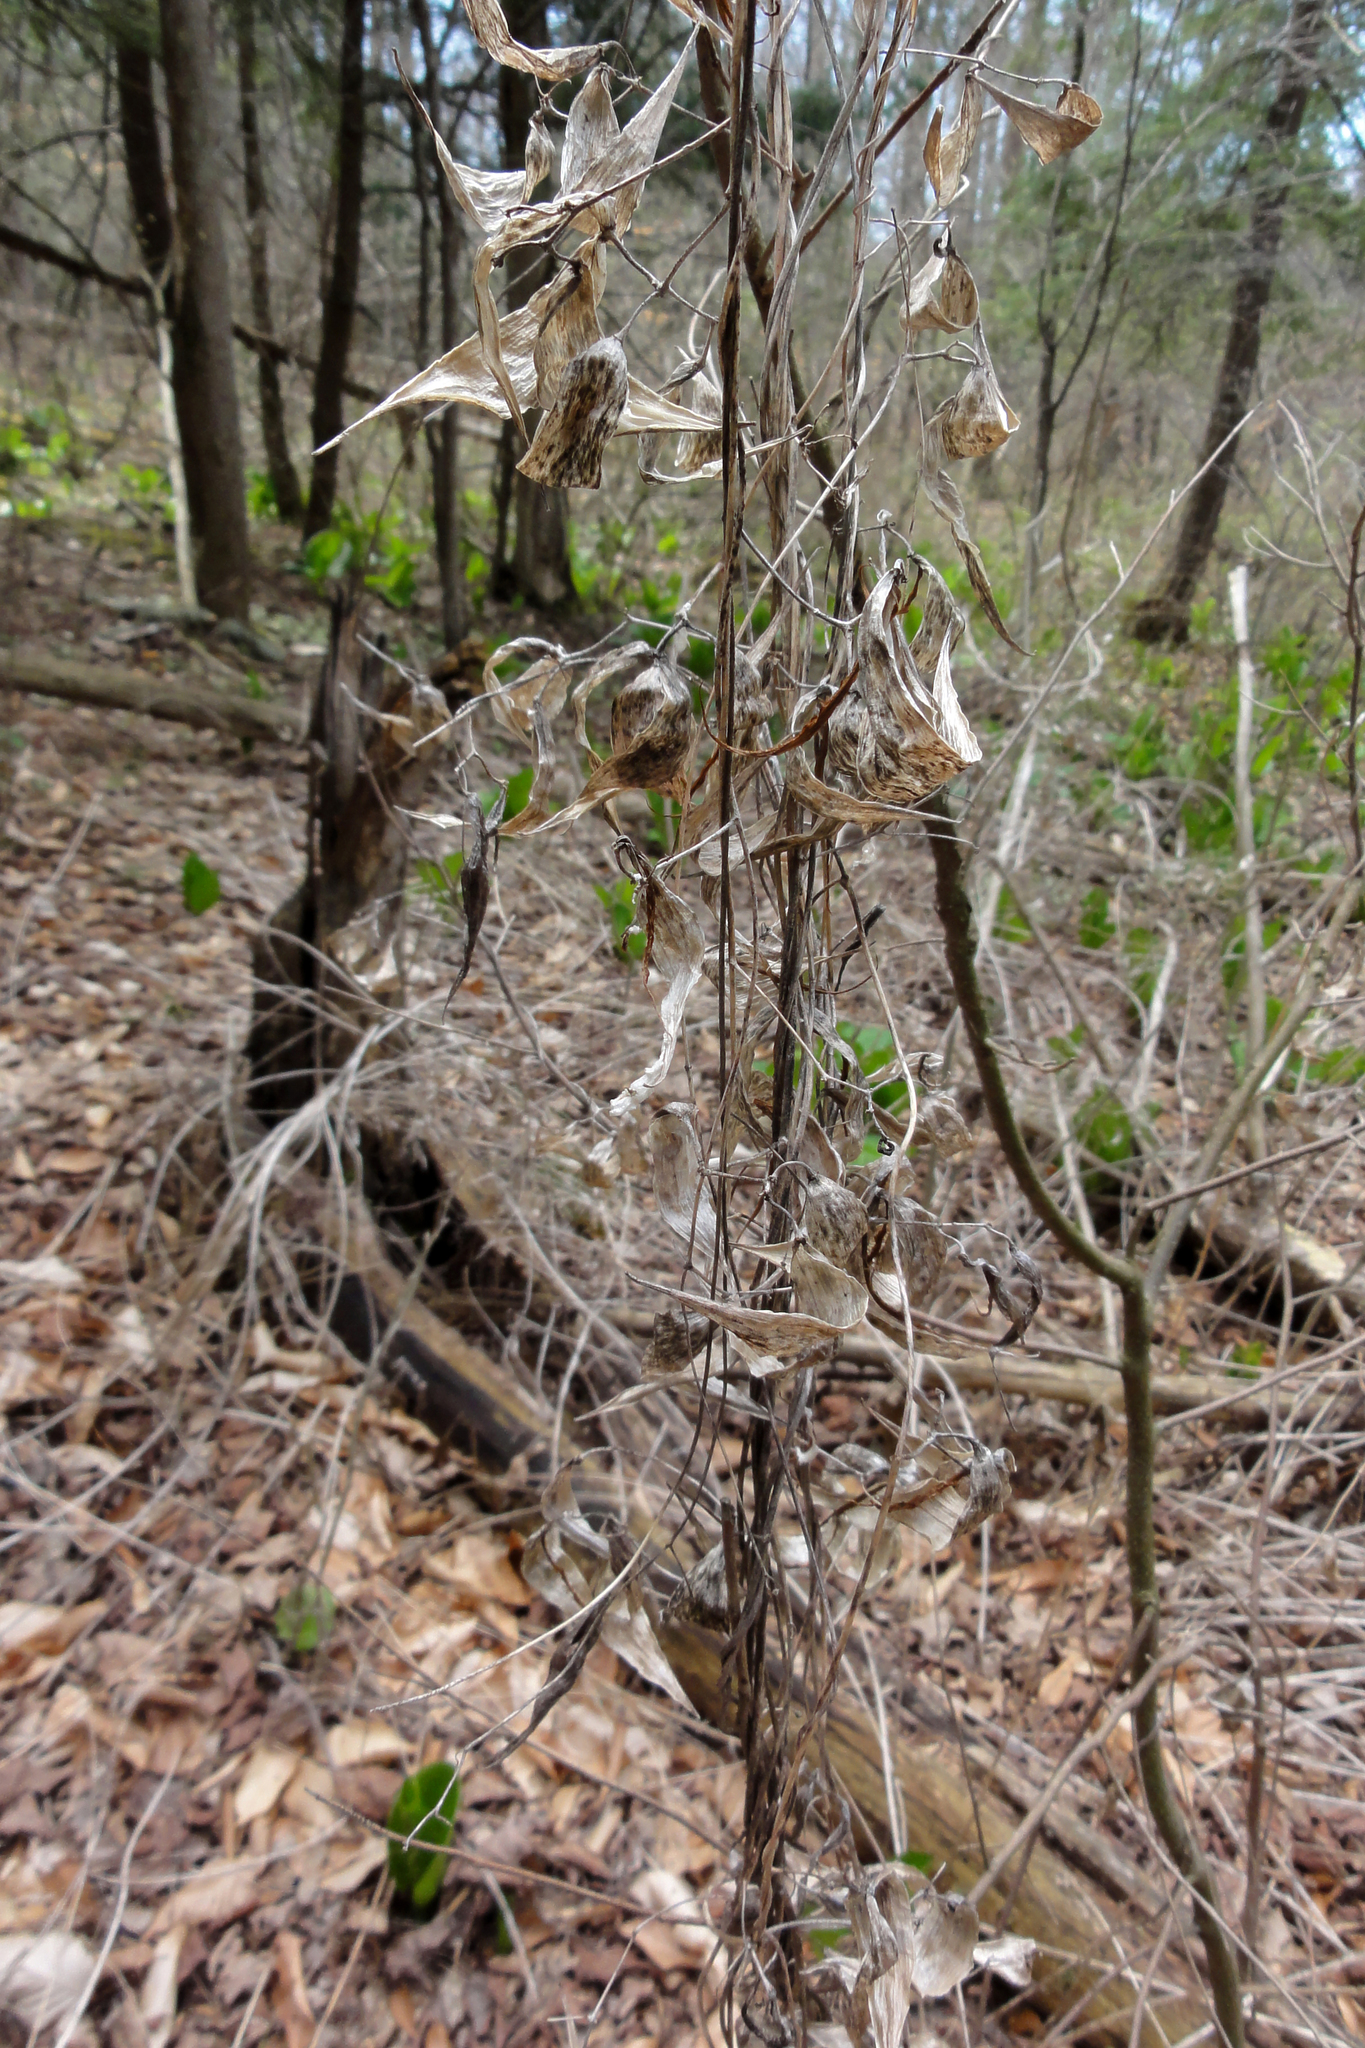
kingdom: Plantae
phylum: Tracheophyta
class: Magnoliopsida
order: Gentianales
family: Apocynaceae
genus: Vincetoxicum
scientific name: Vincetoxicum rossicum
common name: Dog-strangling vine
